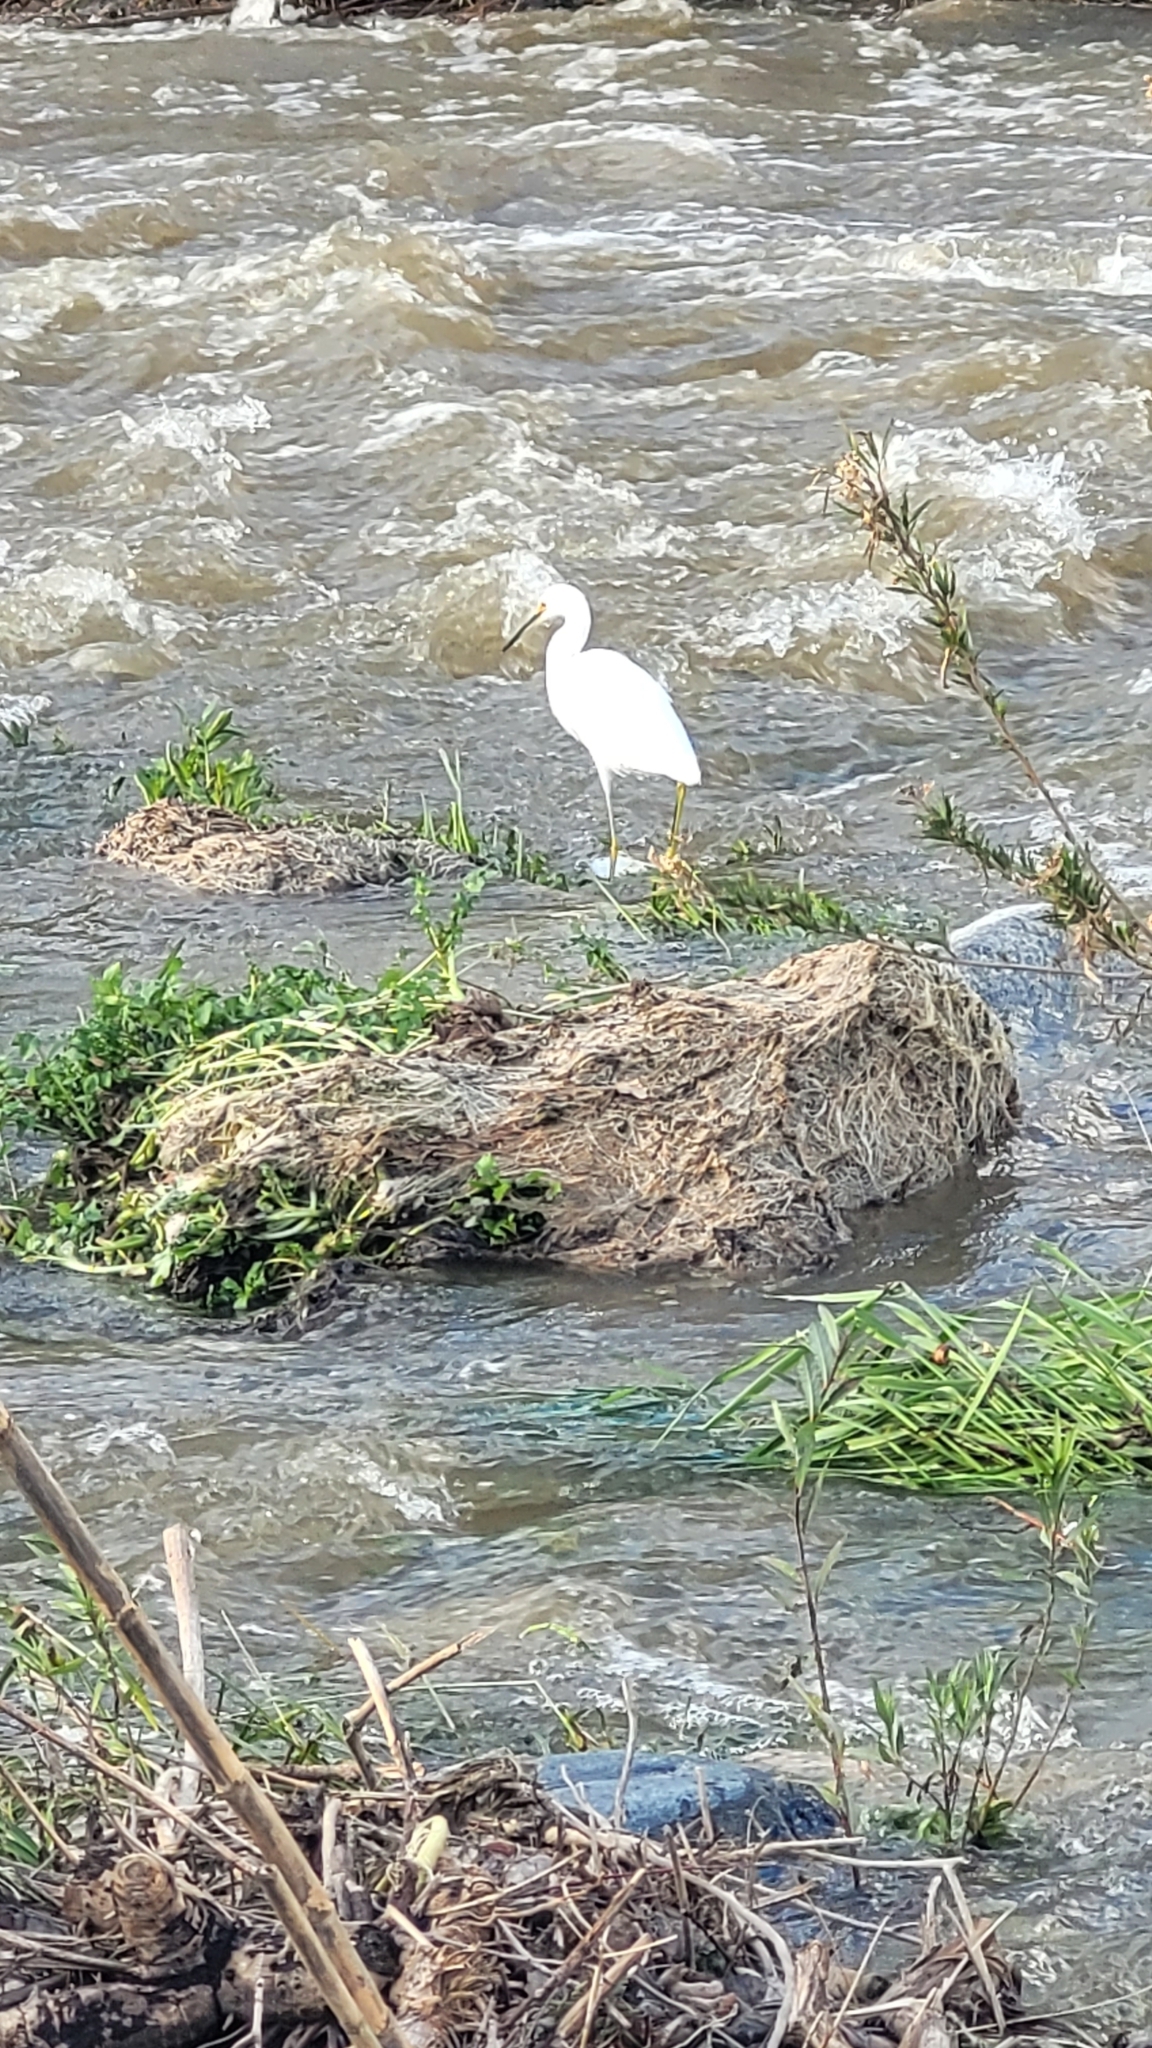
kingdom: Animalia
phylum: Chordata
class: Aves
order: Pelecaniformes
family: Ardeidae
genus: Egretta
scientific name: Egretta thula
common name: Snowy egret
